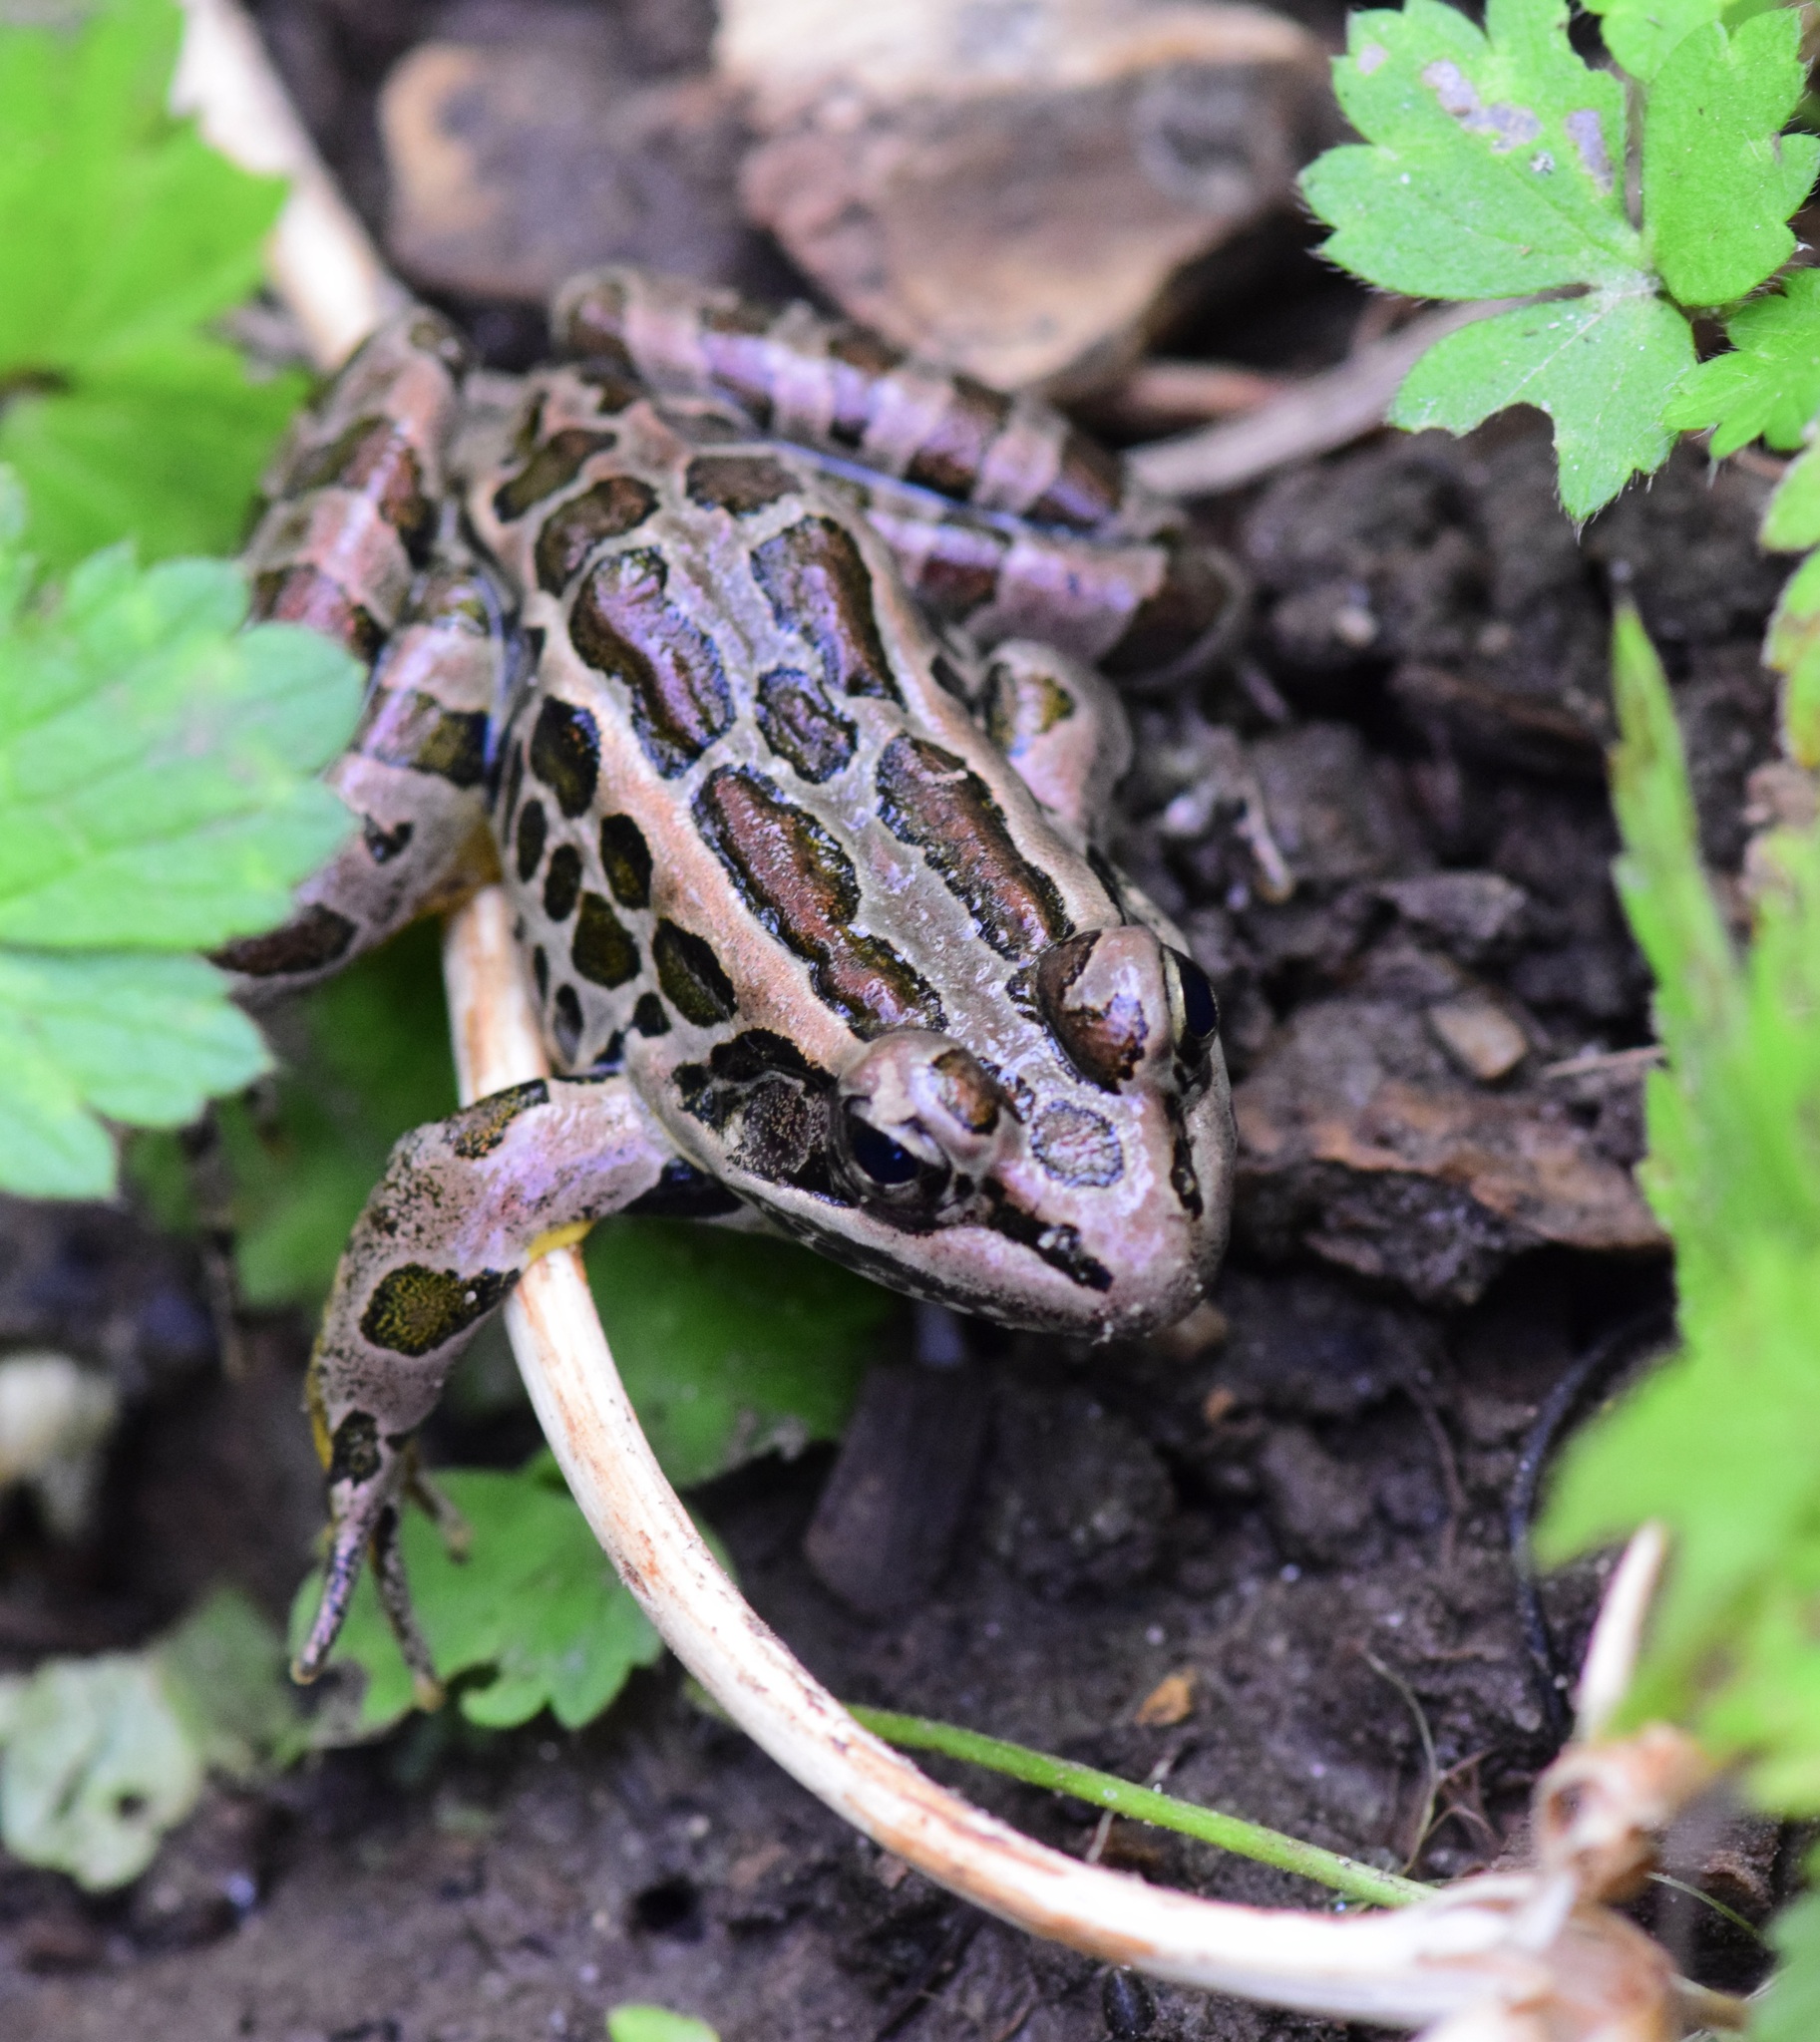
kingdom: Animalia
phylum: Chordata
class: Amphibia
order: Anura
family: Ranidae
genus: Lithobates
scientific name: Lithobates palustris
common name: Pickerel frog
